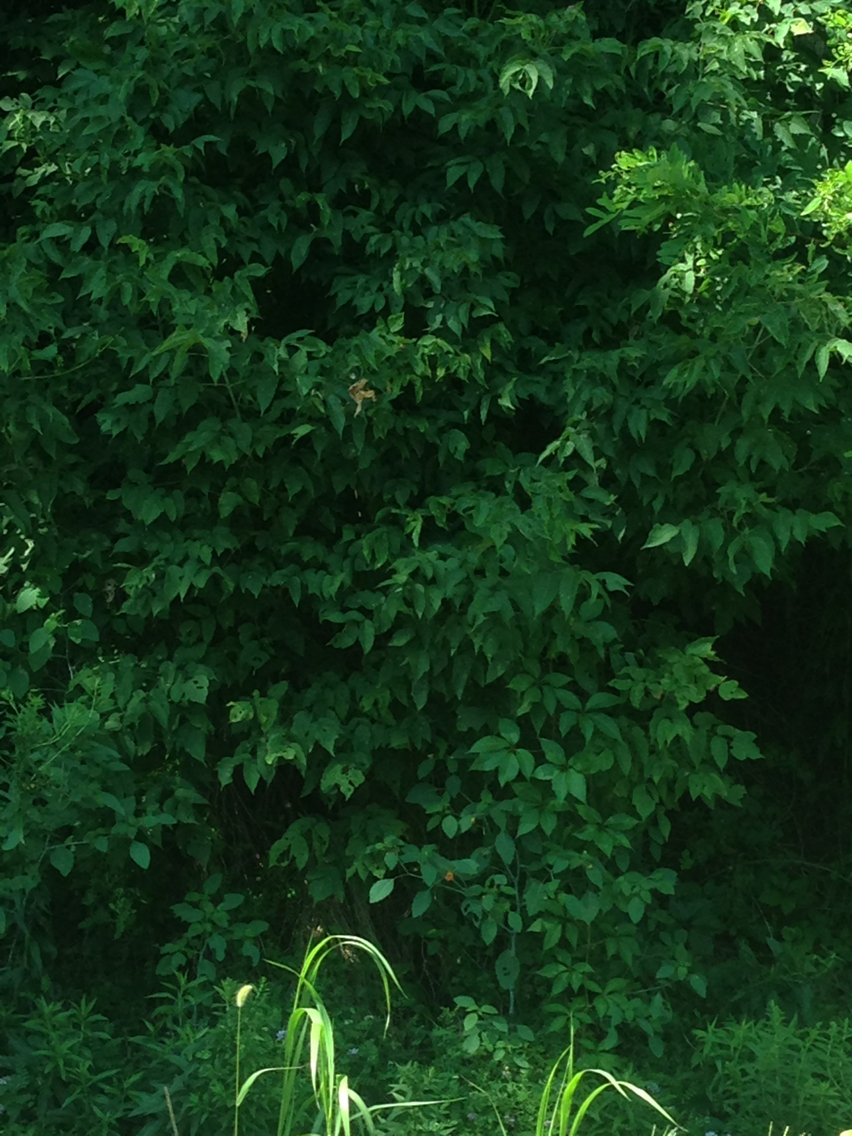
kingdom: Plantae
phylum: Tracheophyta
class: Magnoliopsida
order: Sapindales
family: Sapindaceae
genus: Acer
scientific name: Acer negundo
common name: Ashleaf maple
